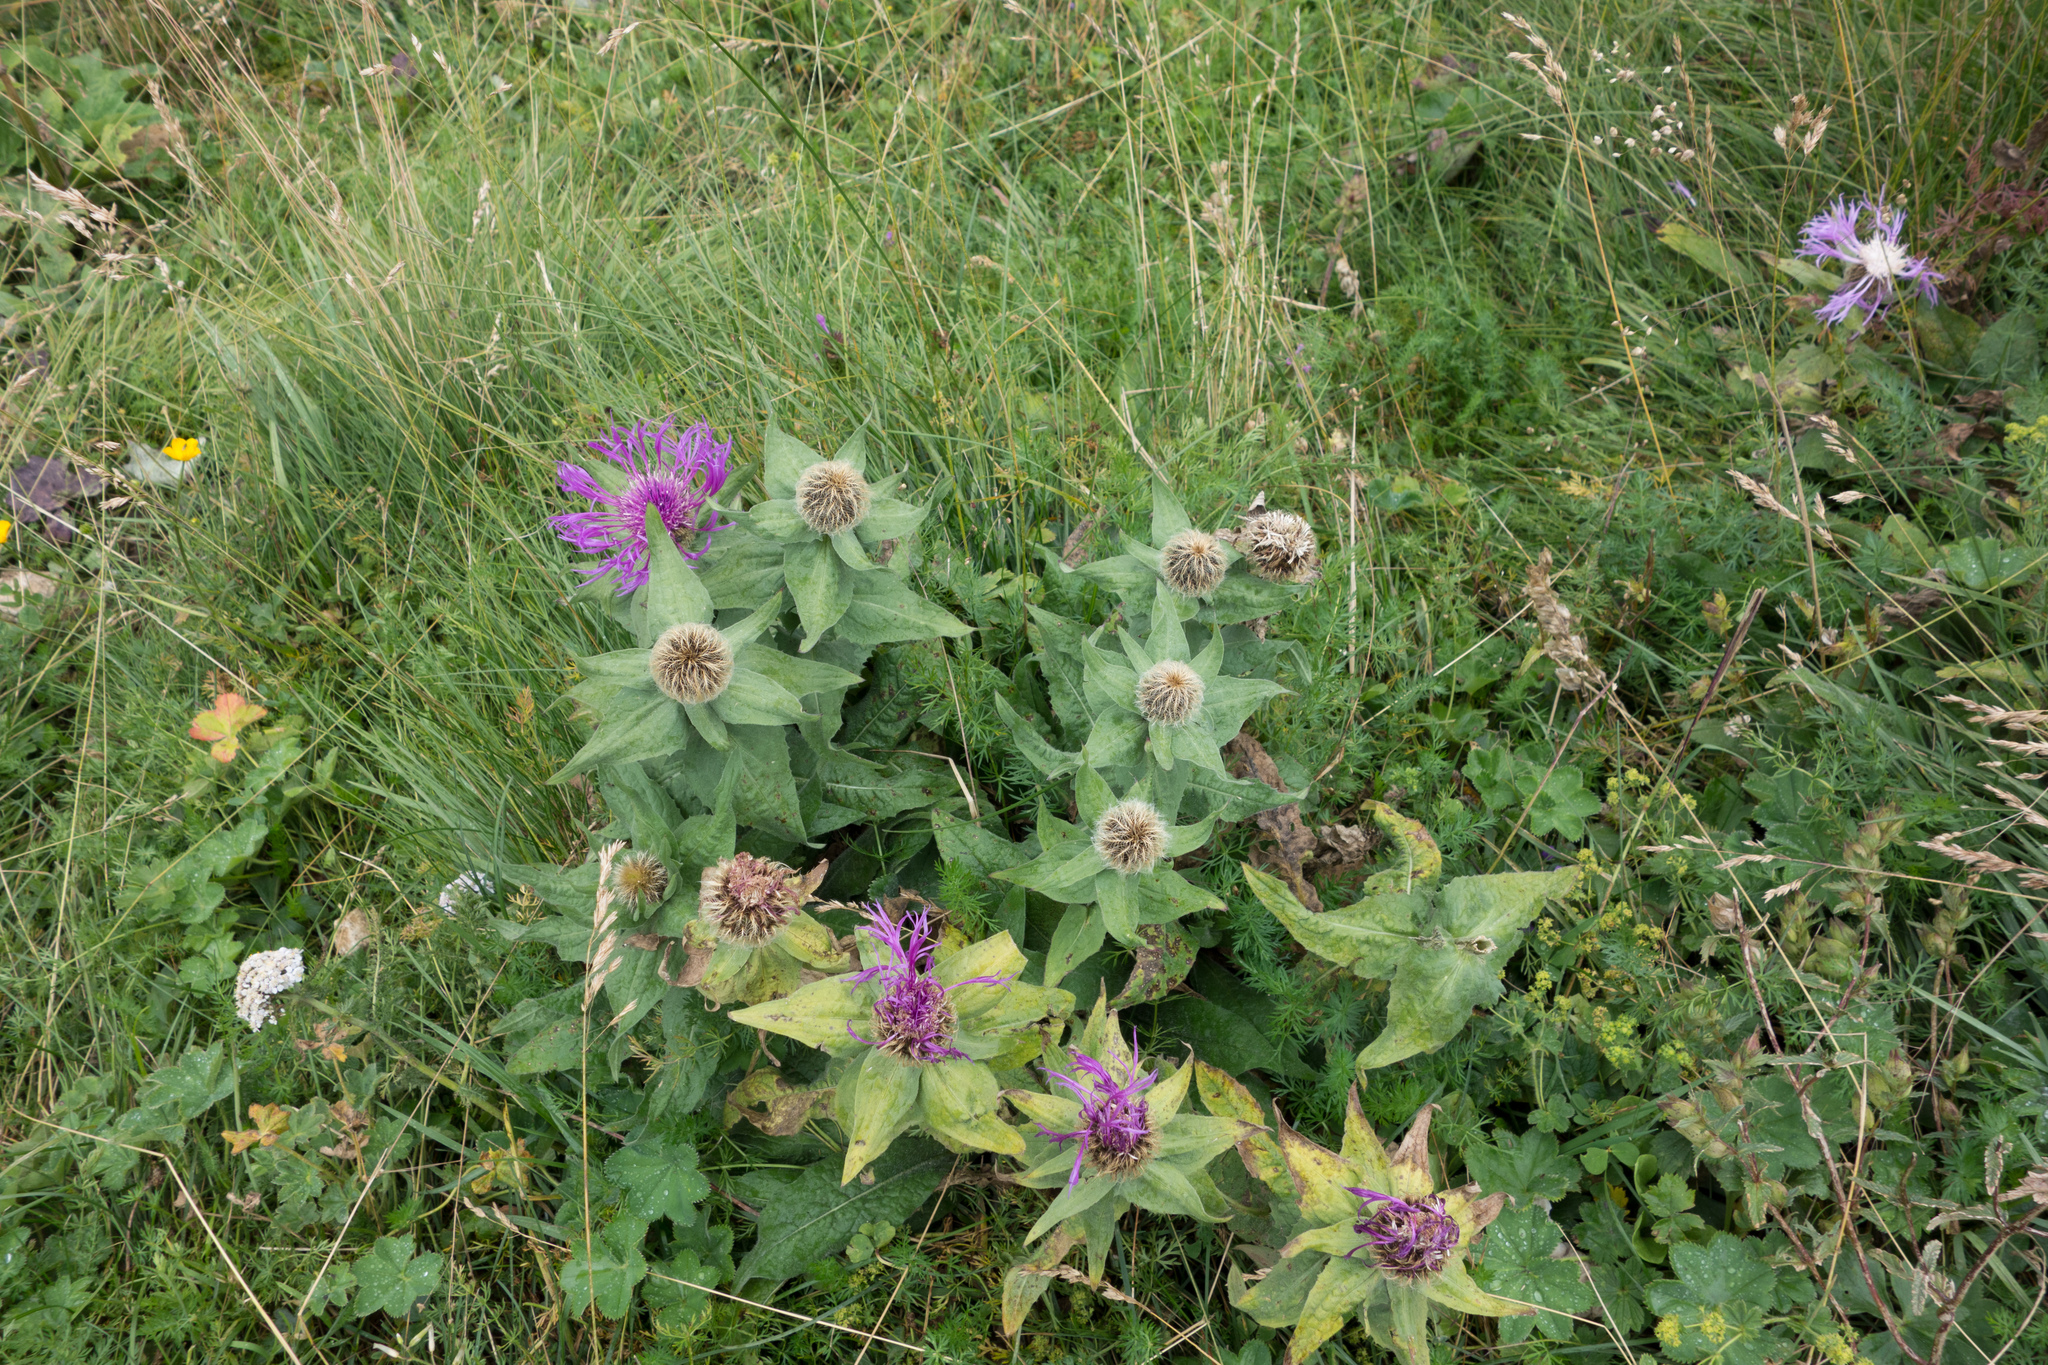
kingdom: Plantae
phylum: Tracheophyta
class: Magnoliopsida
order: Asterales
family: Asteraceae
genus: Centaurea
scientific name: Centaurea nervosa
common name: Singleflower knapweed
